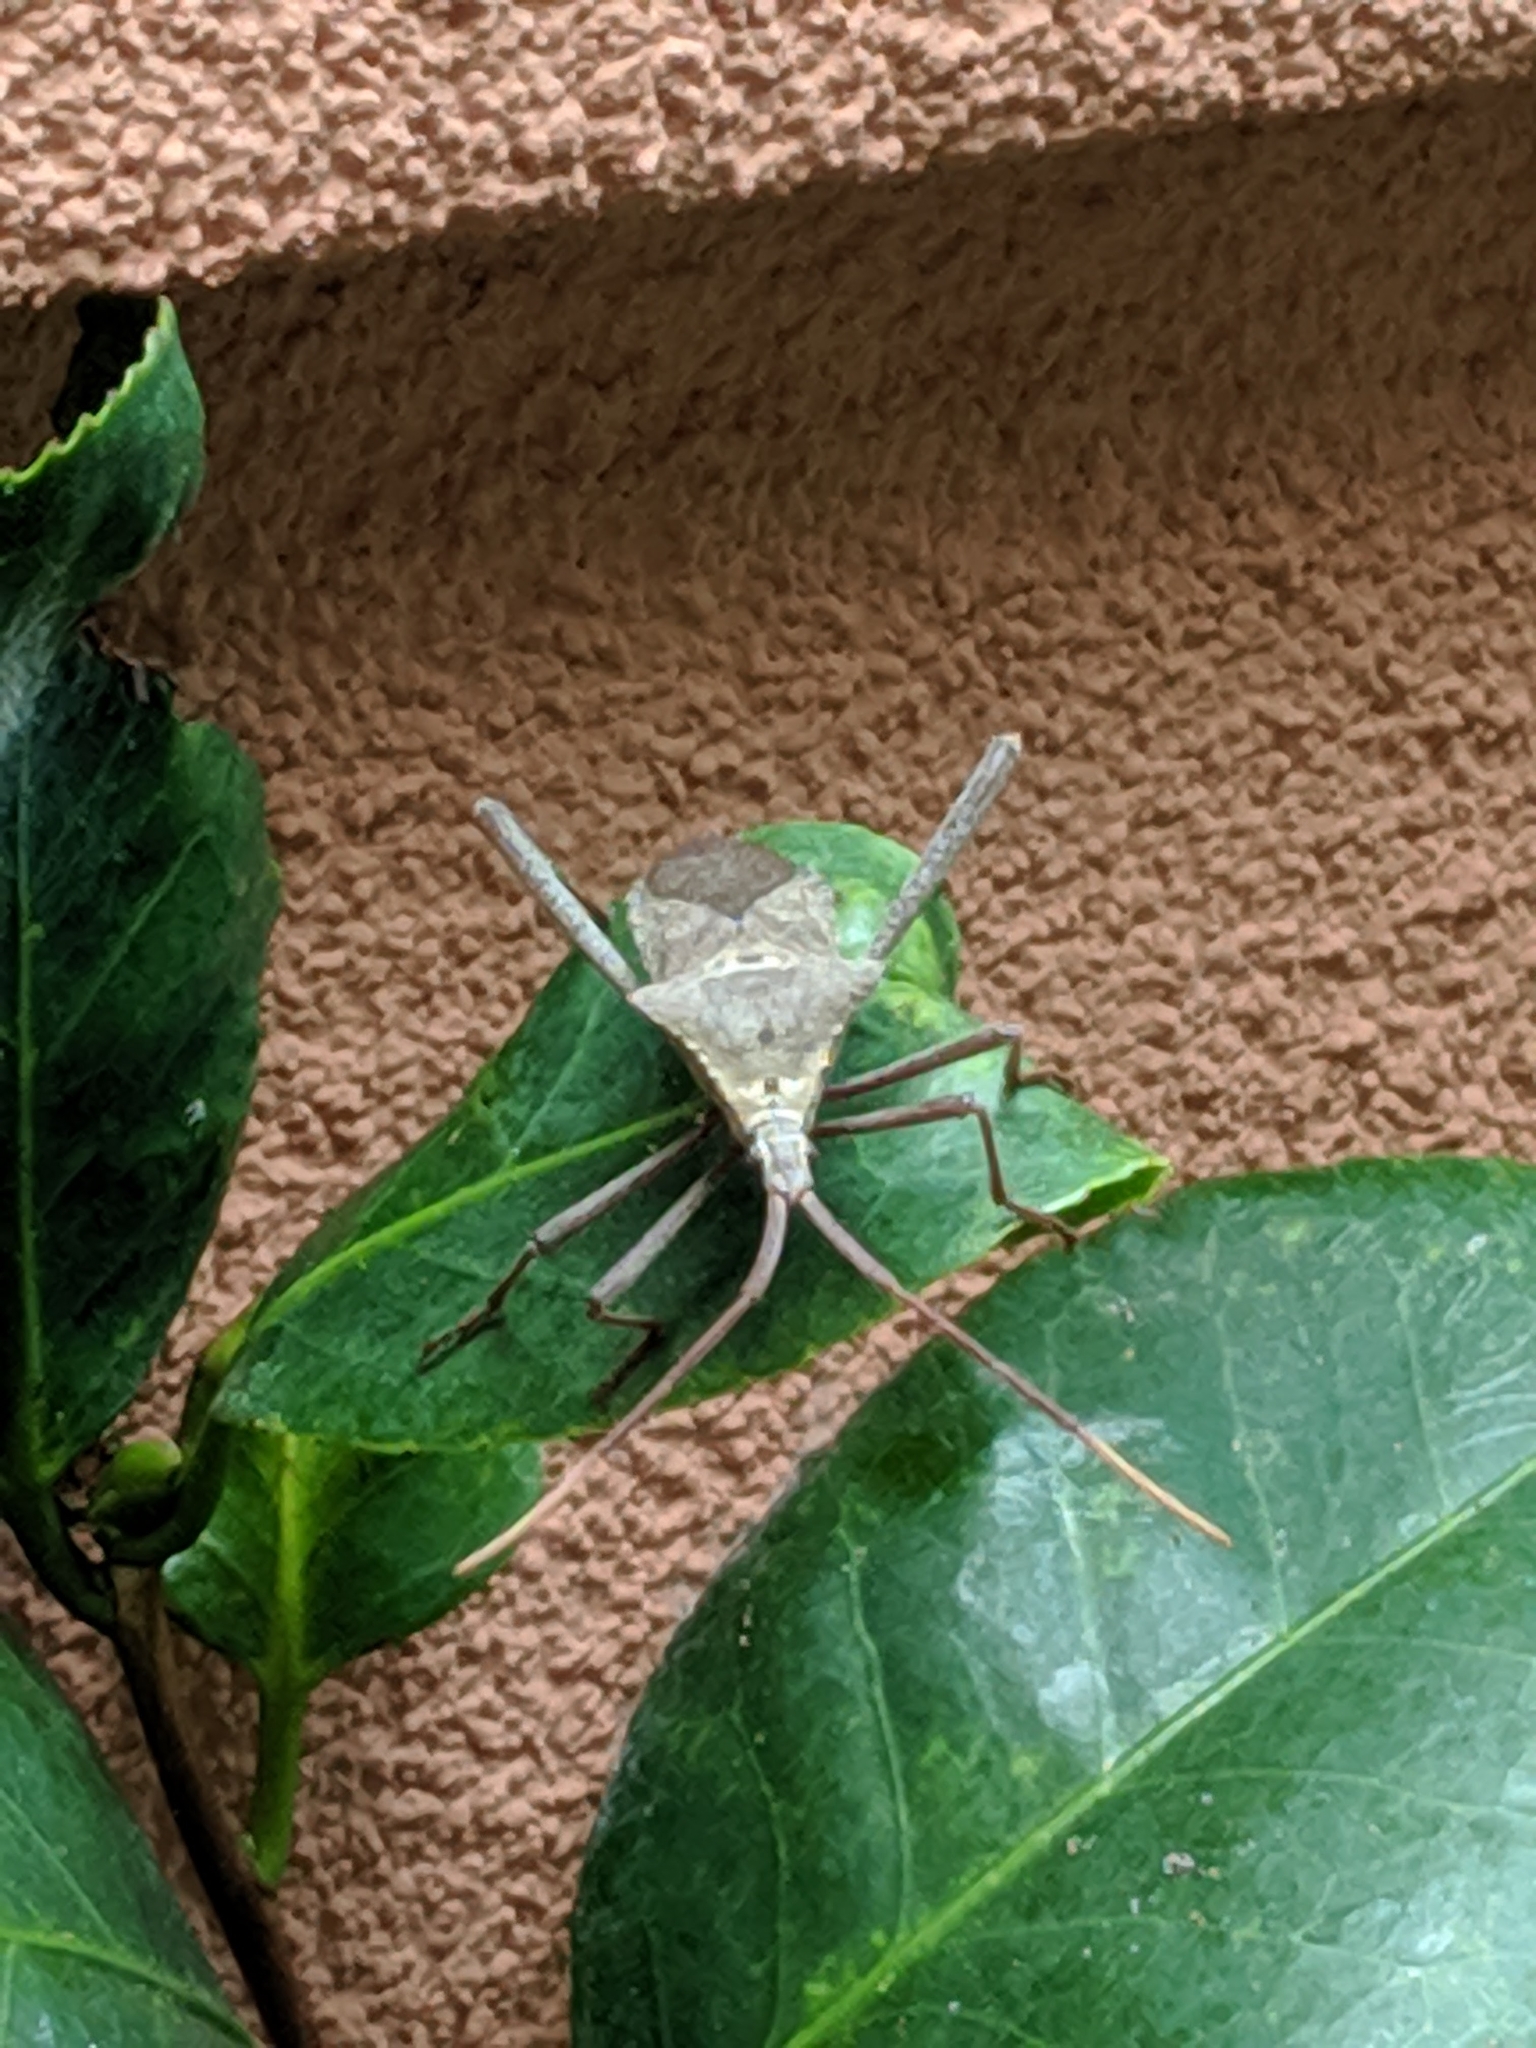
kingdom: Animalia
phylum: Arthropoda
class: Insecta
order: Hemiptera
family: Coreidae
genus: Acanthocephala
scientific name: Acanthocephala declivis
